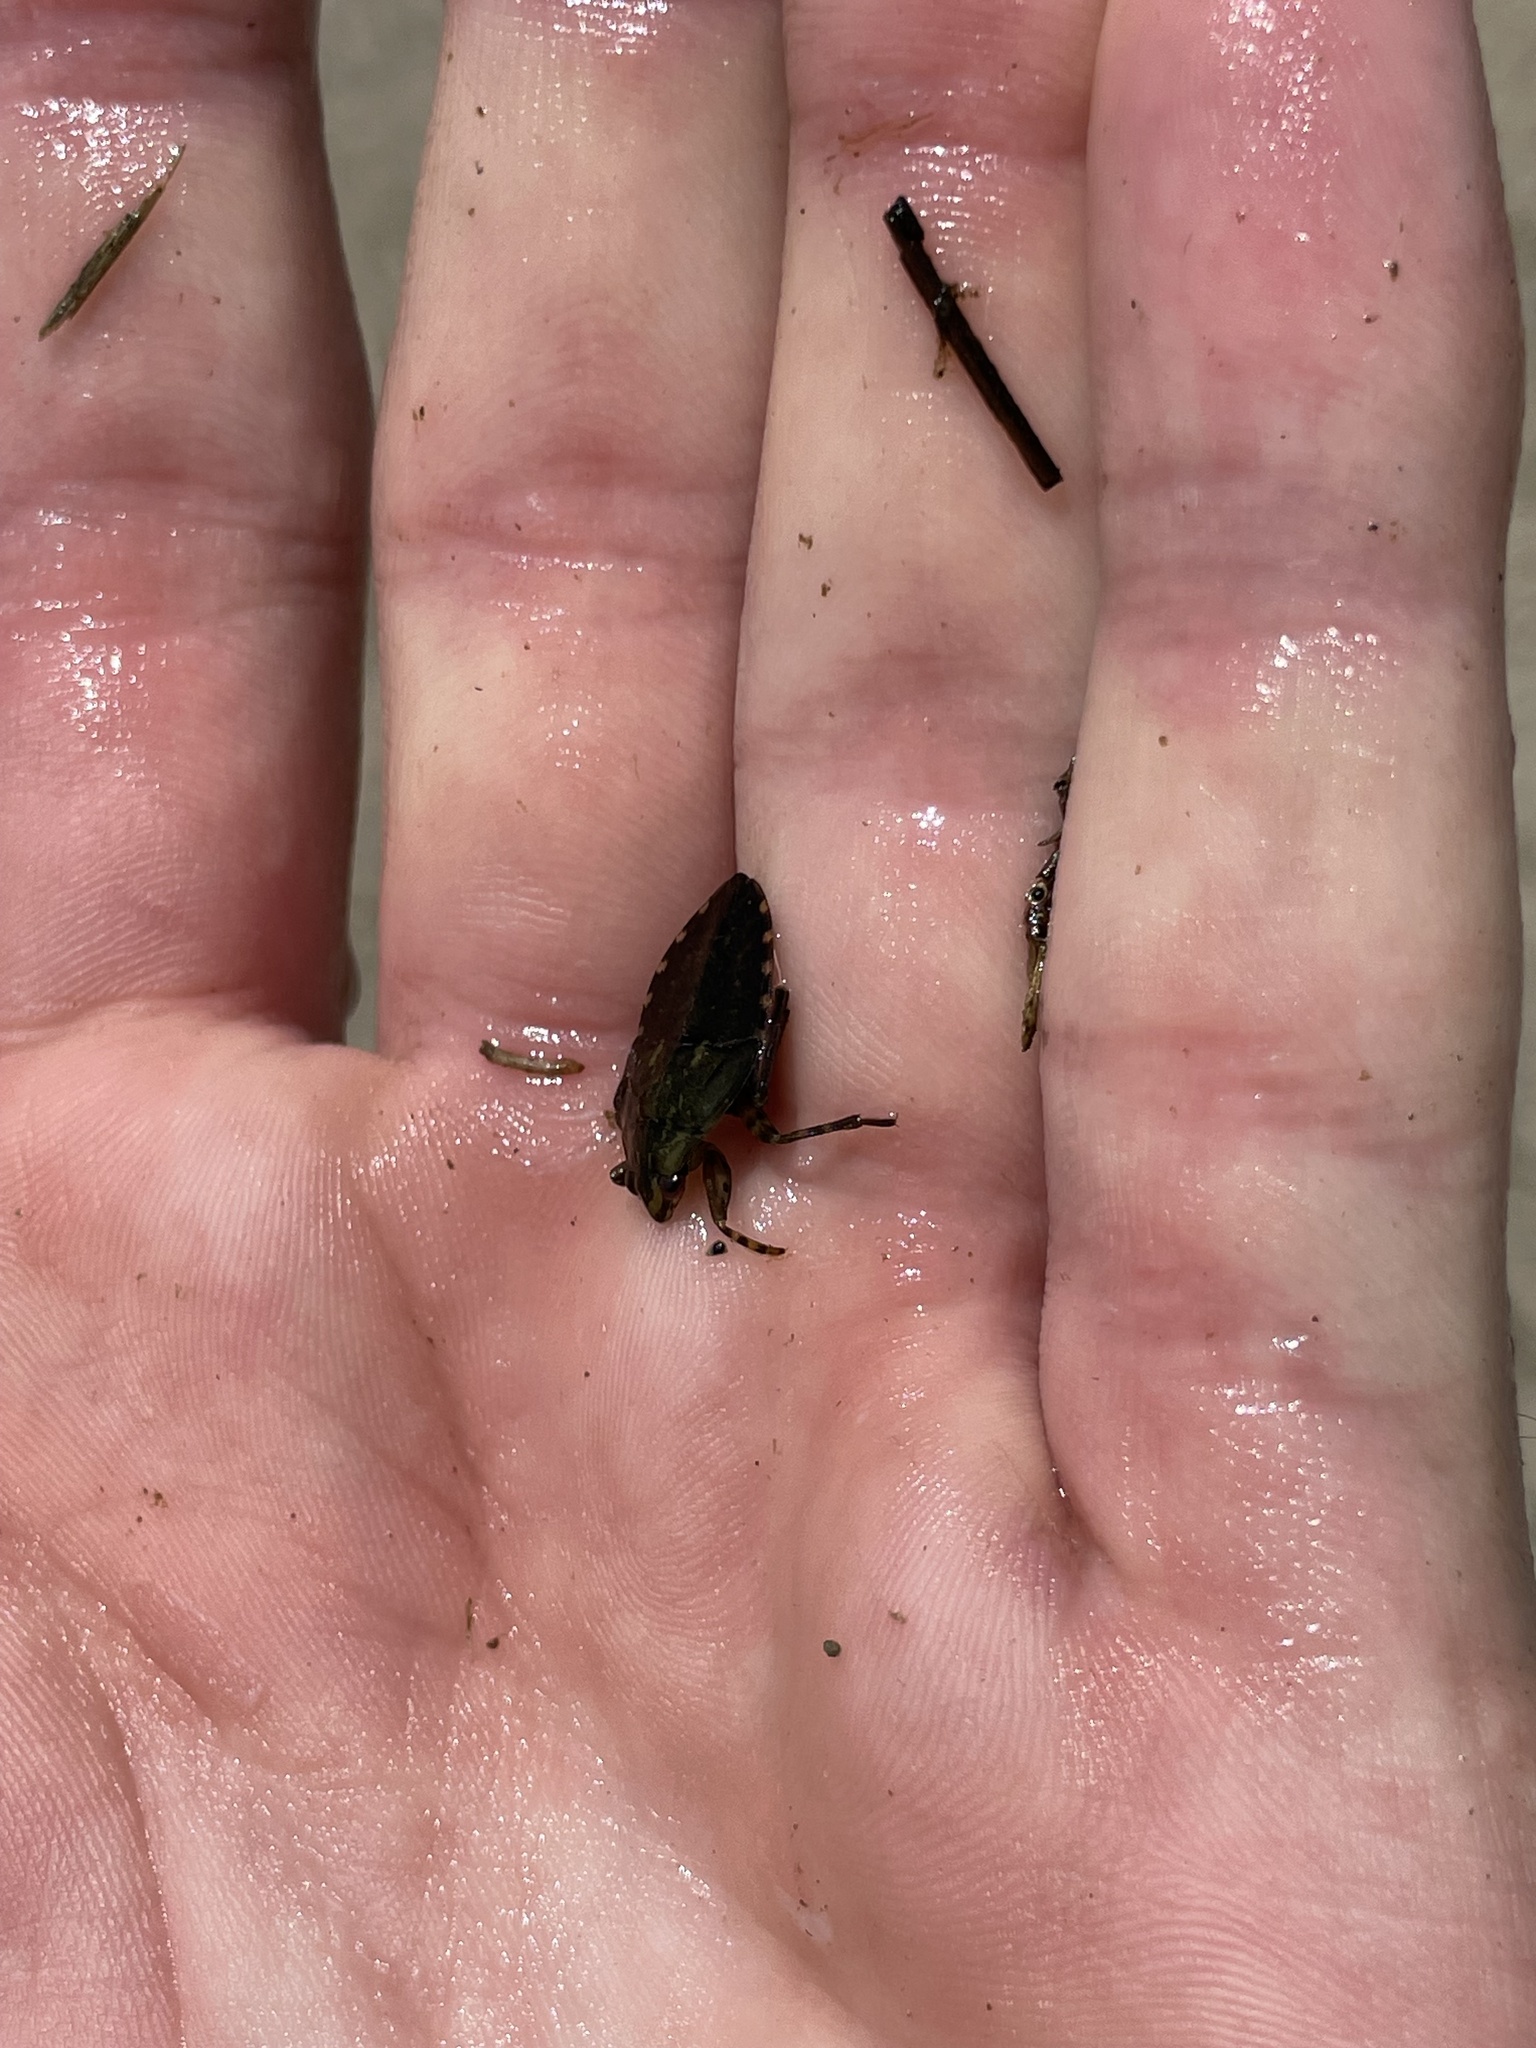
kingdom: Animalia
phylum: Arthropoda
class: Insecta
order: Hemiptera
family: Belostomatidae
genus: Belostoma
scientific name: Belostoma
